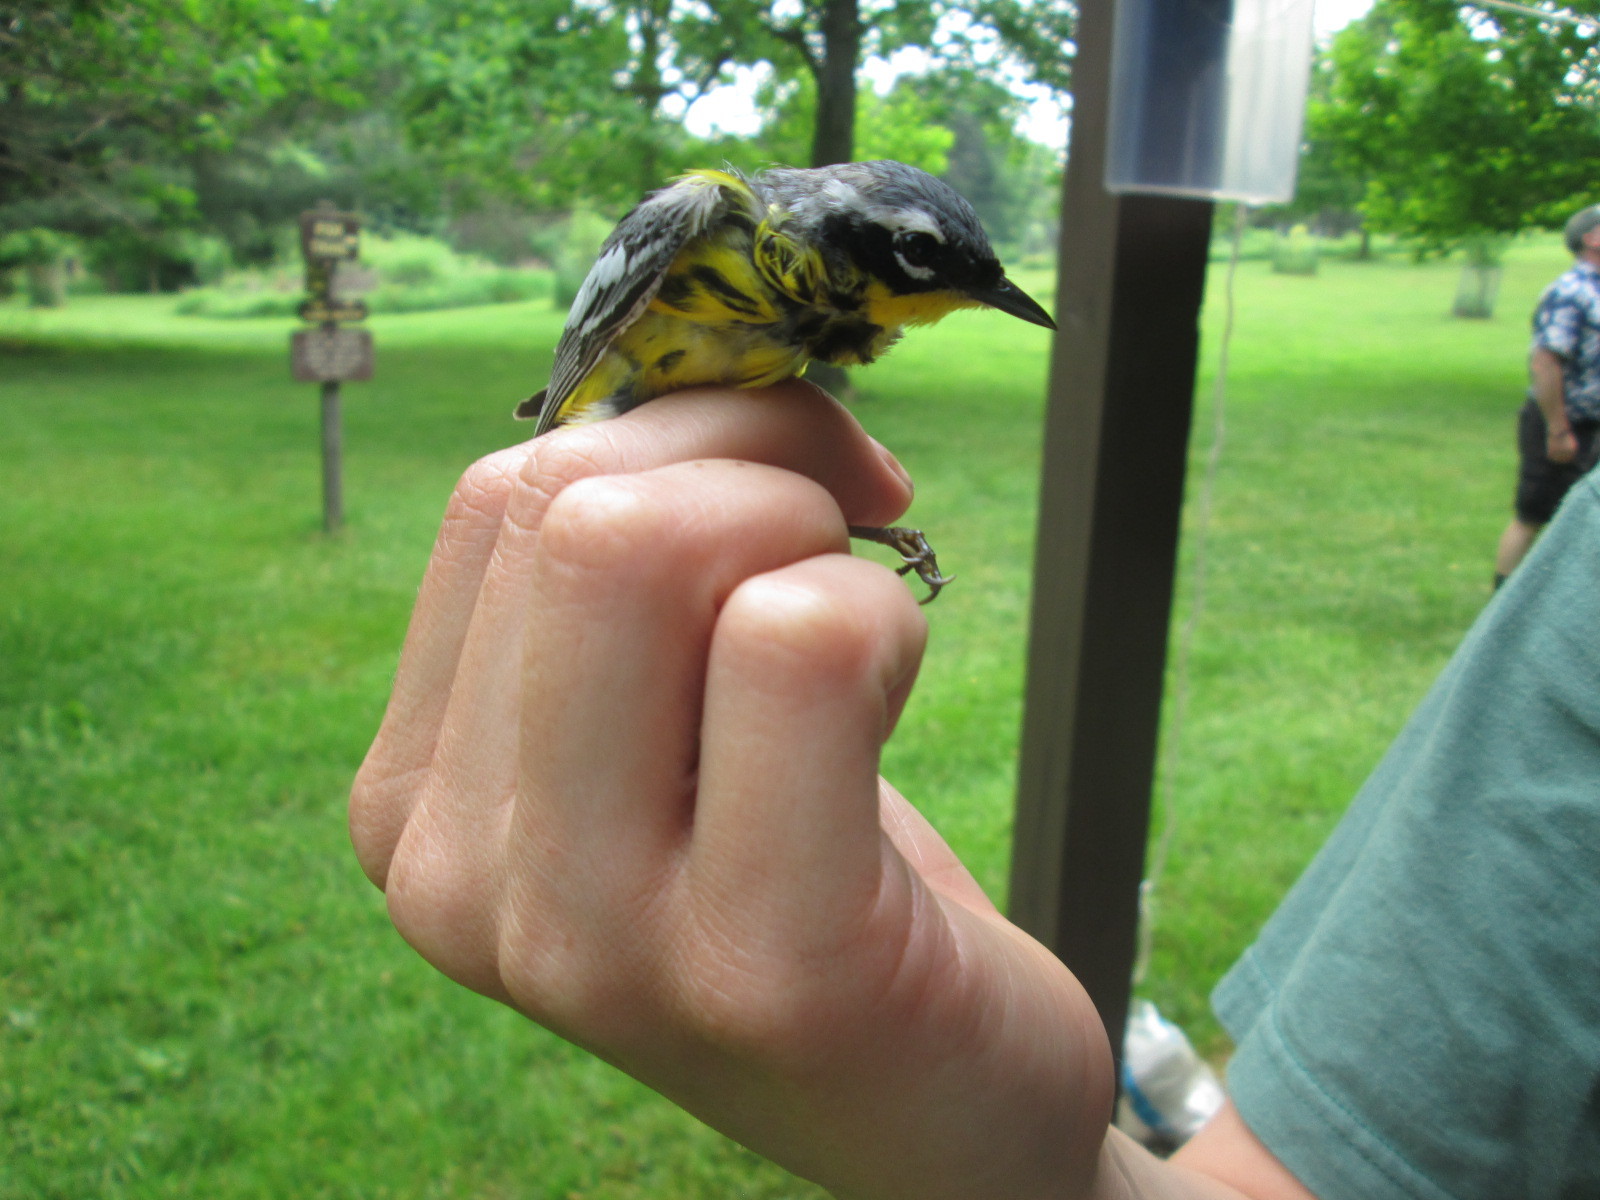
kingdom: Animalia
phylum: Chordata
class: Aves
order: Passeriformes
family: Parulidae
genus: Setophaga
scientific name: Setophaga magnolia
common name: Magnolia warbler
